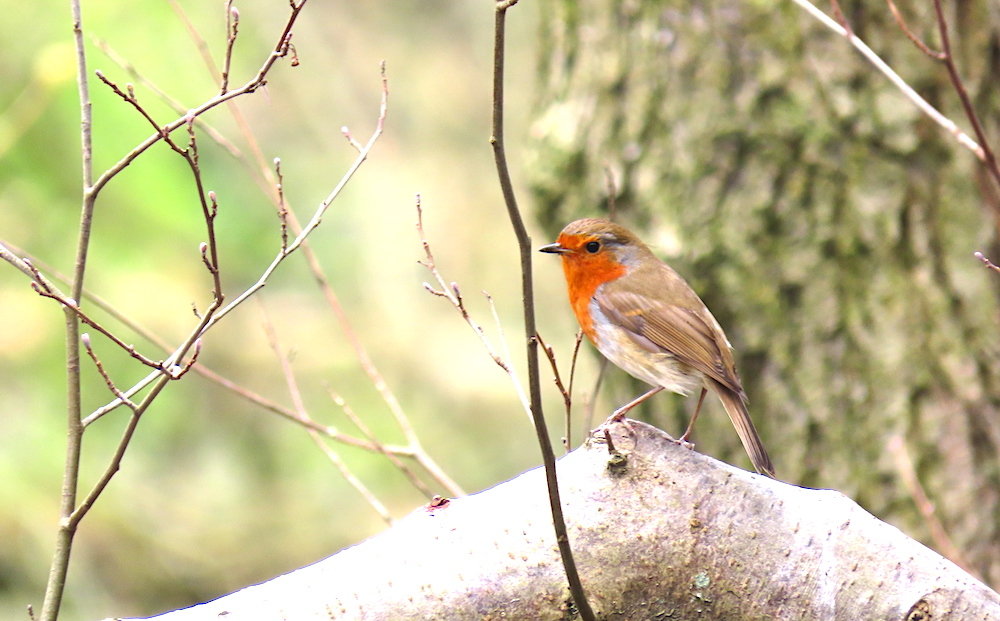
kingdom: Animalia
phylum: Chordata
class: Aves
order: Passeriformes
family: Muscicapidae
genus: Erithacus
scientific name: Erithacus rubecula
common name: European robin
